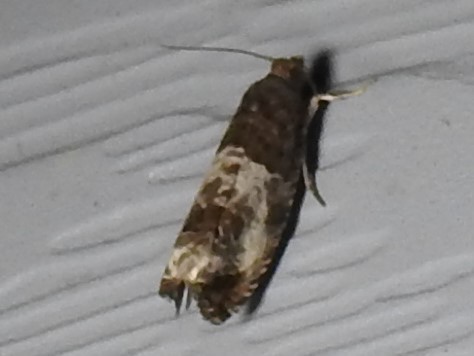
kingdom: Animalia
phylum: Arthropoda
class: Insecta
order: Lepidoptera
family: Tortricidae
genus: Notocelia
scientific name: Notocelia rosaecolana
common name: Common rose bell
